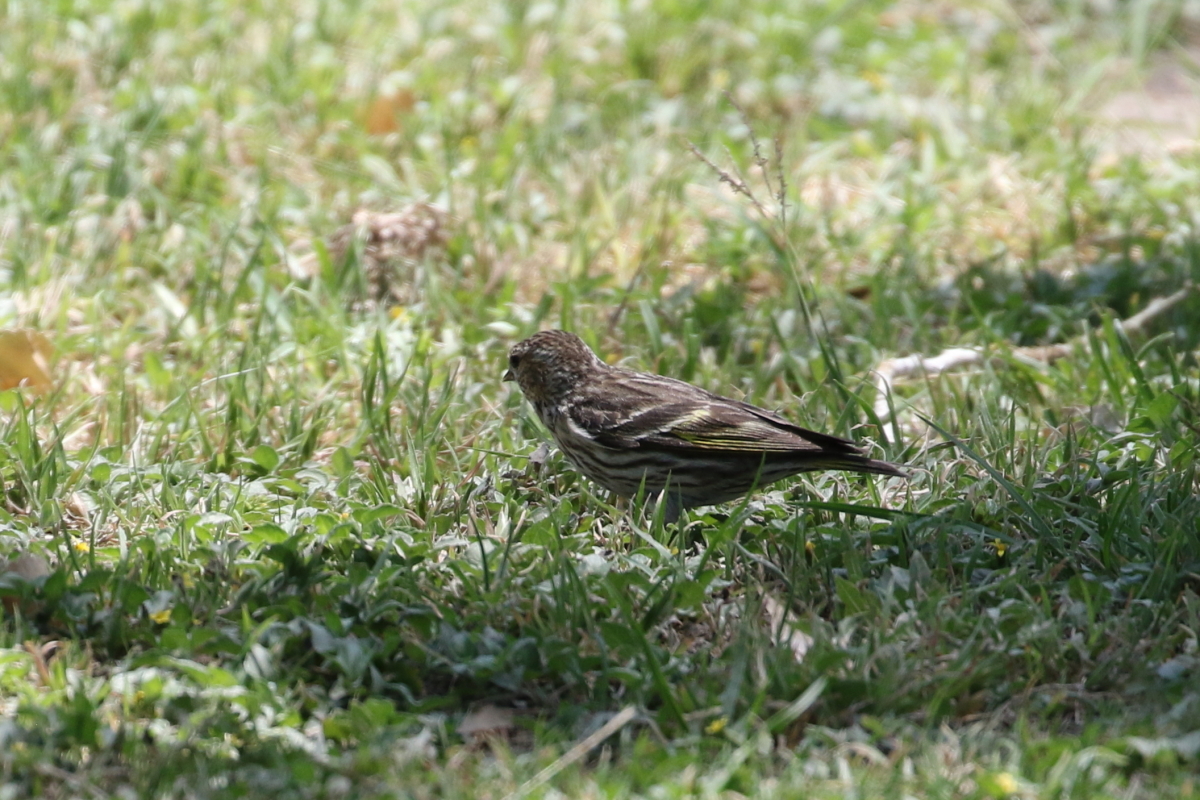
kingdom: Animalia
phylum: Chordata
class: Aves
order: Passeriformes
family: Fringillidae
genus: Spinus
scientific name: Spinus pinus
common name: Pine siskin
